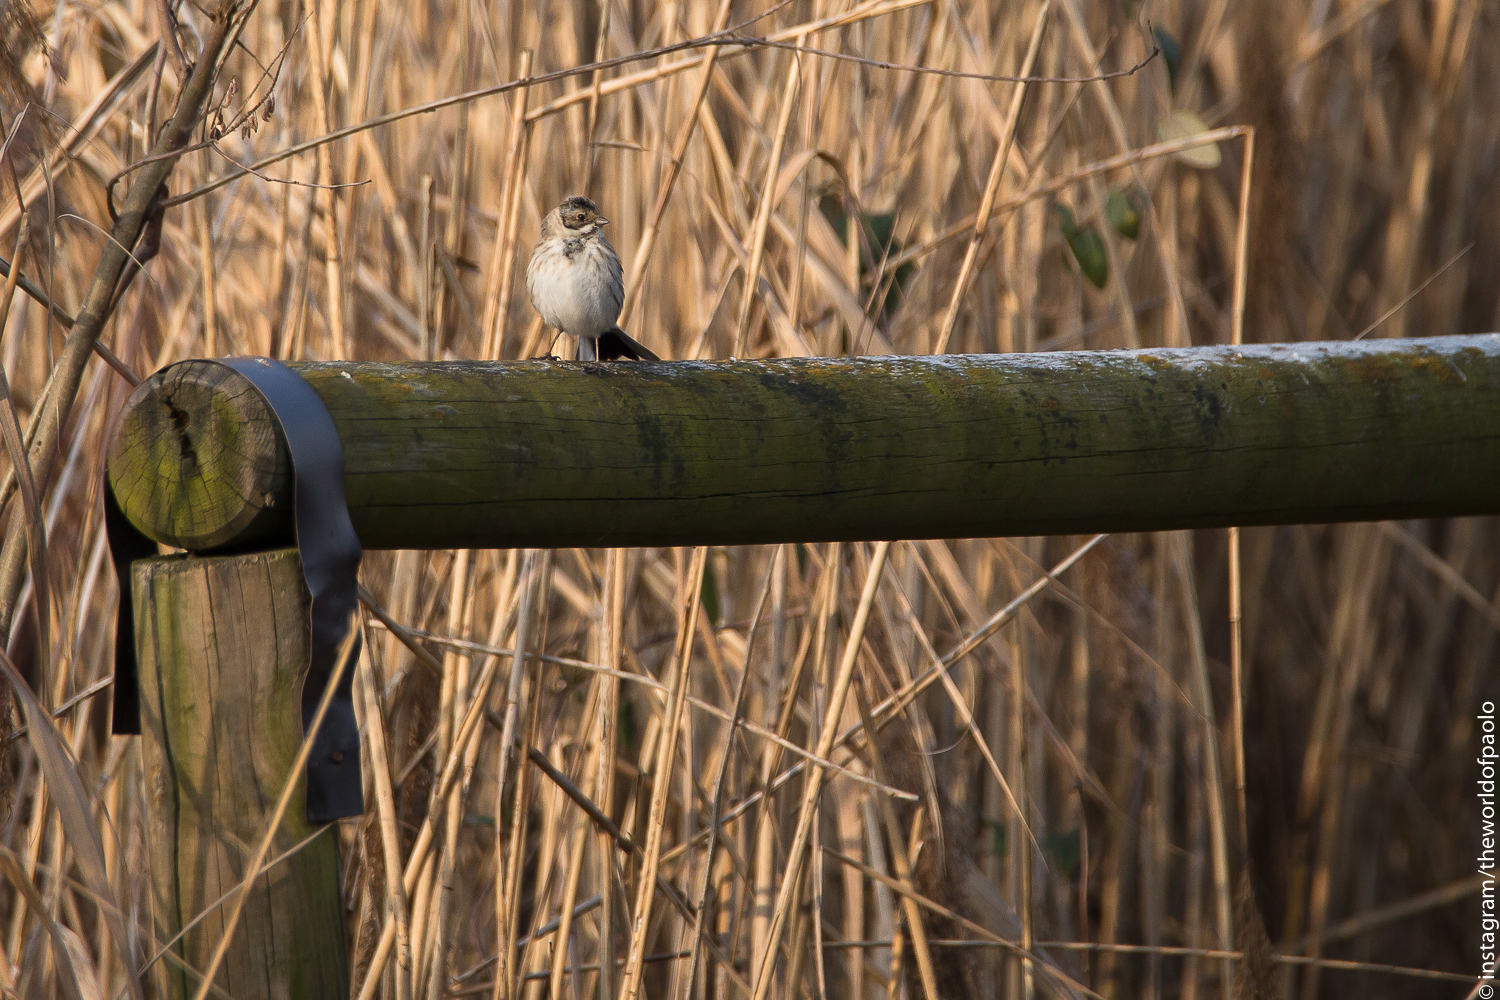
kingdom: Animalia
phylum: Chordata
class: Aves
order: Passeriformes
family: Emberizidae
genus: Emberiza
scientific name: Emberiza schoeniclus
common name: Reed bunting
